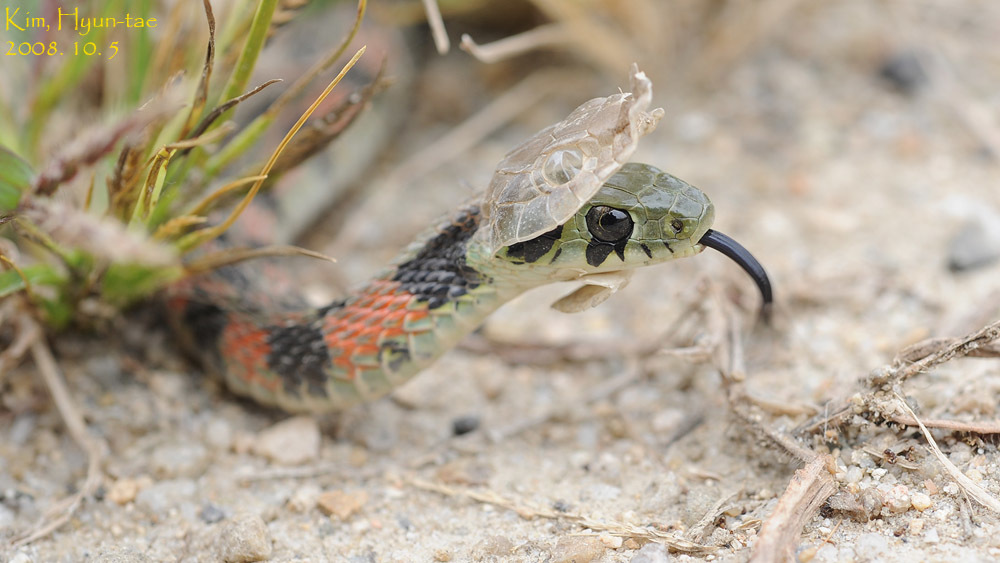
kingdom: Animalia
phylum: Chordata
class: Squamata
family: Colubridae
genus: Rhabdophis
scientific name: Rhabdophis tigrinus
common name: Tiger keelback
